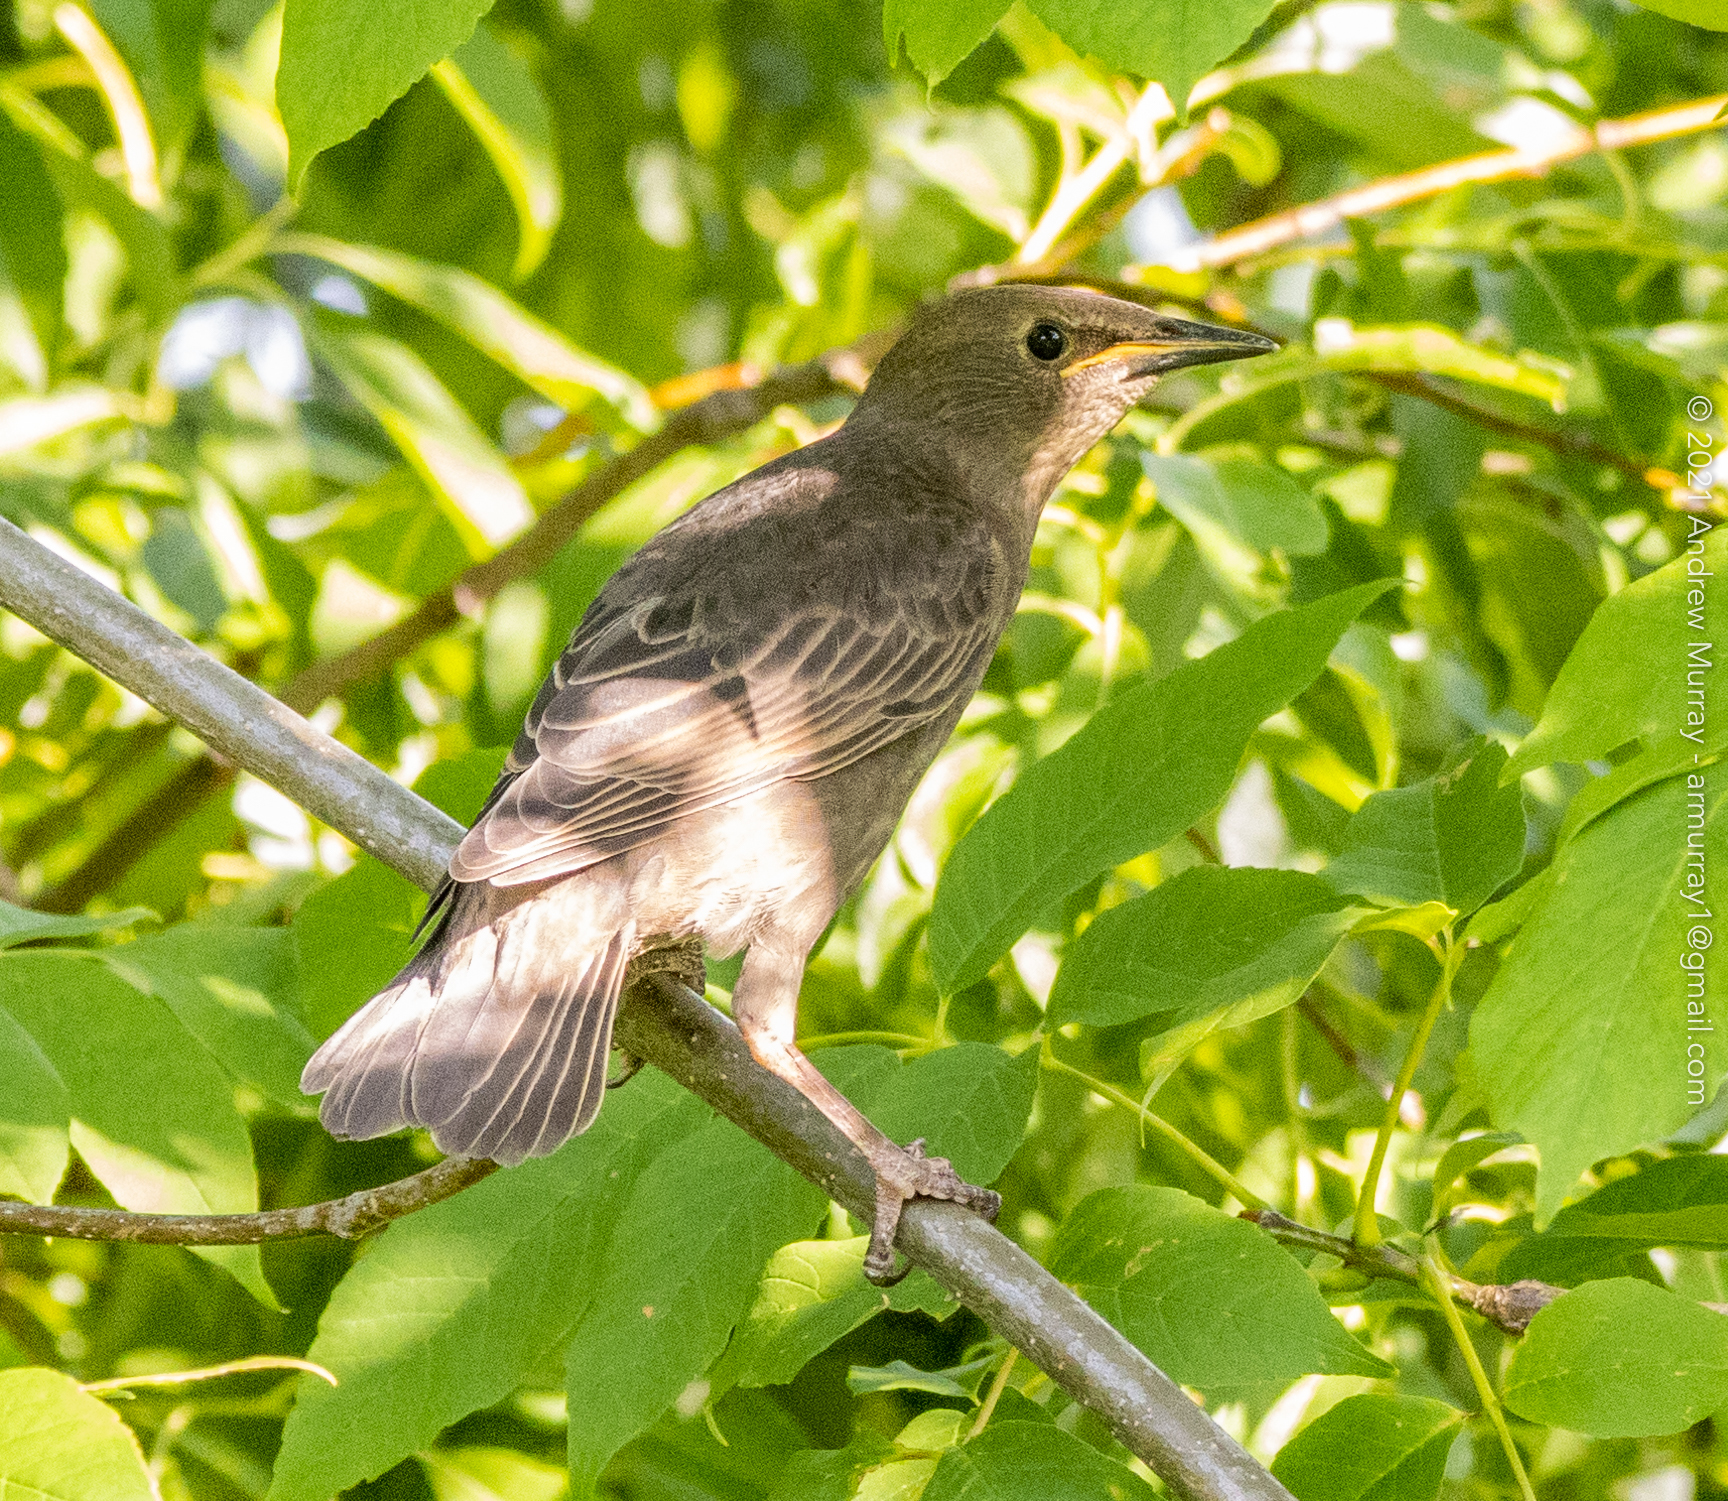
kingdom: Animalia
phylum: Chordata
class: Aves
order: Passeriformes
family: Sturnidae
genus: Sturnus
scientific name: Sturnus vulgaris
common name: Common starling
